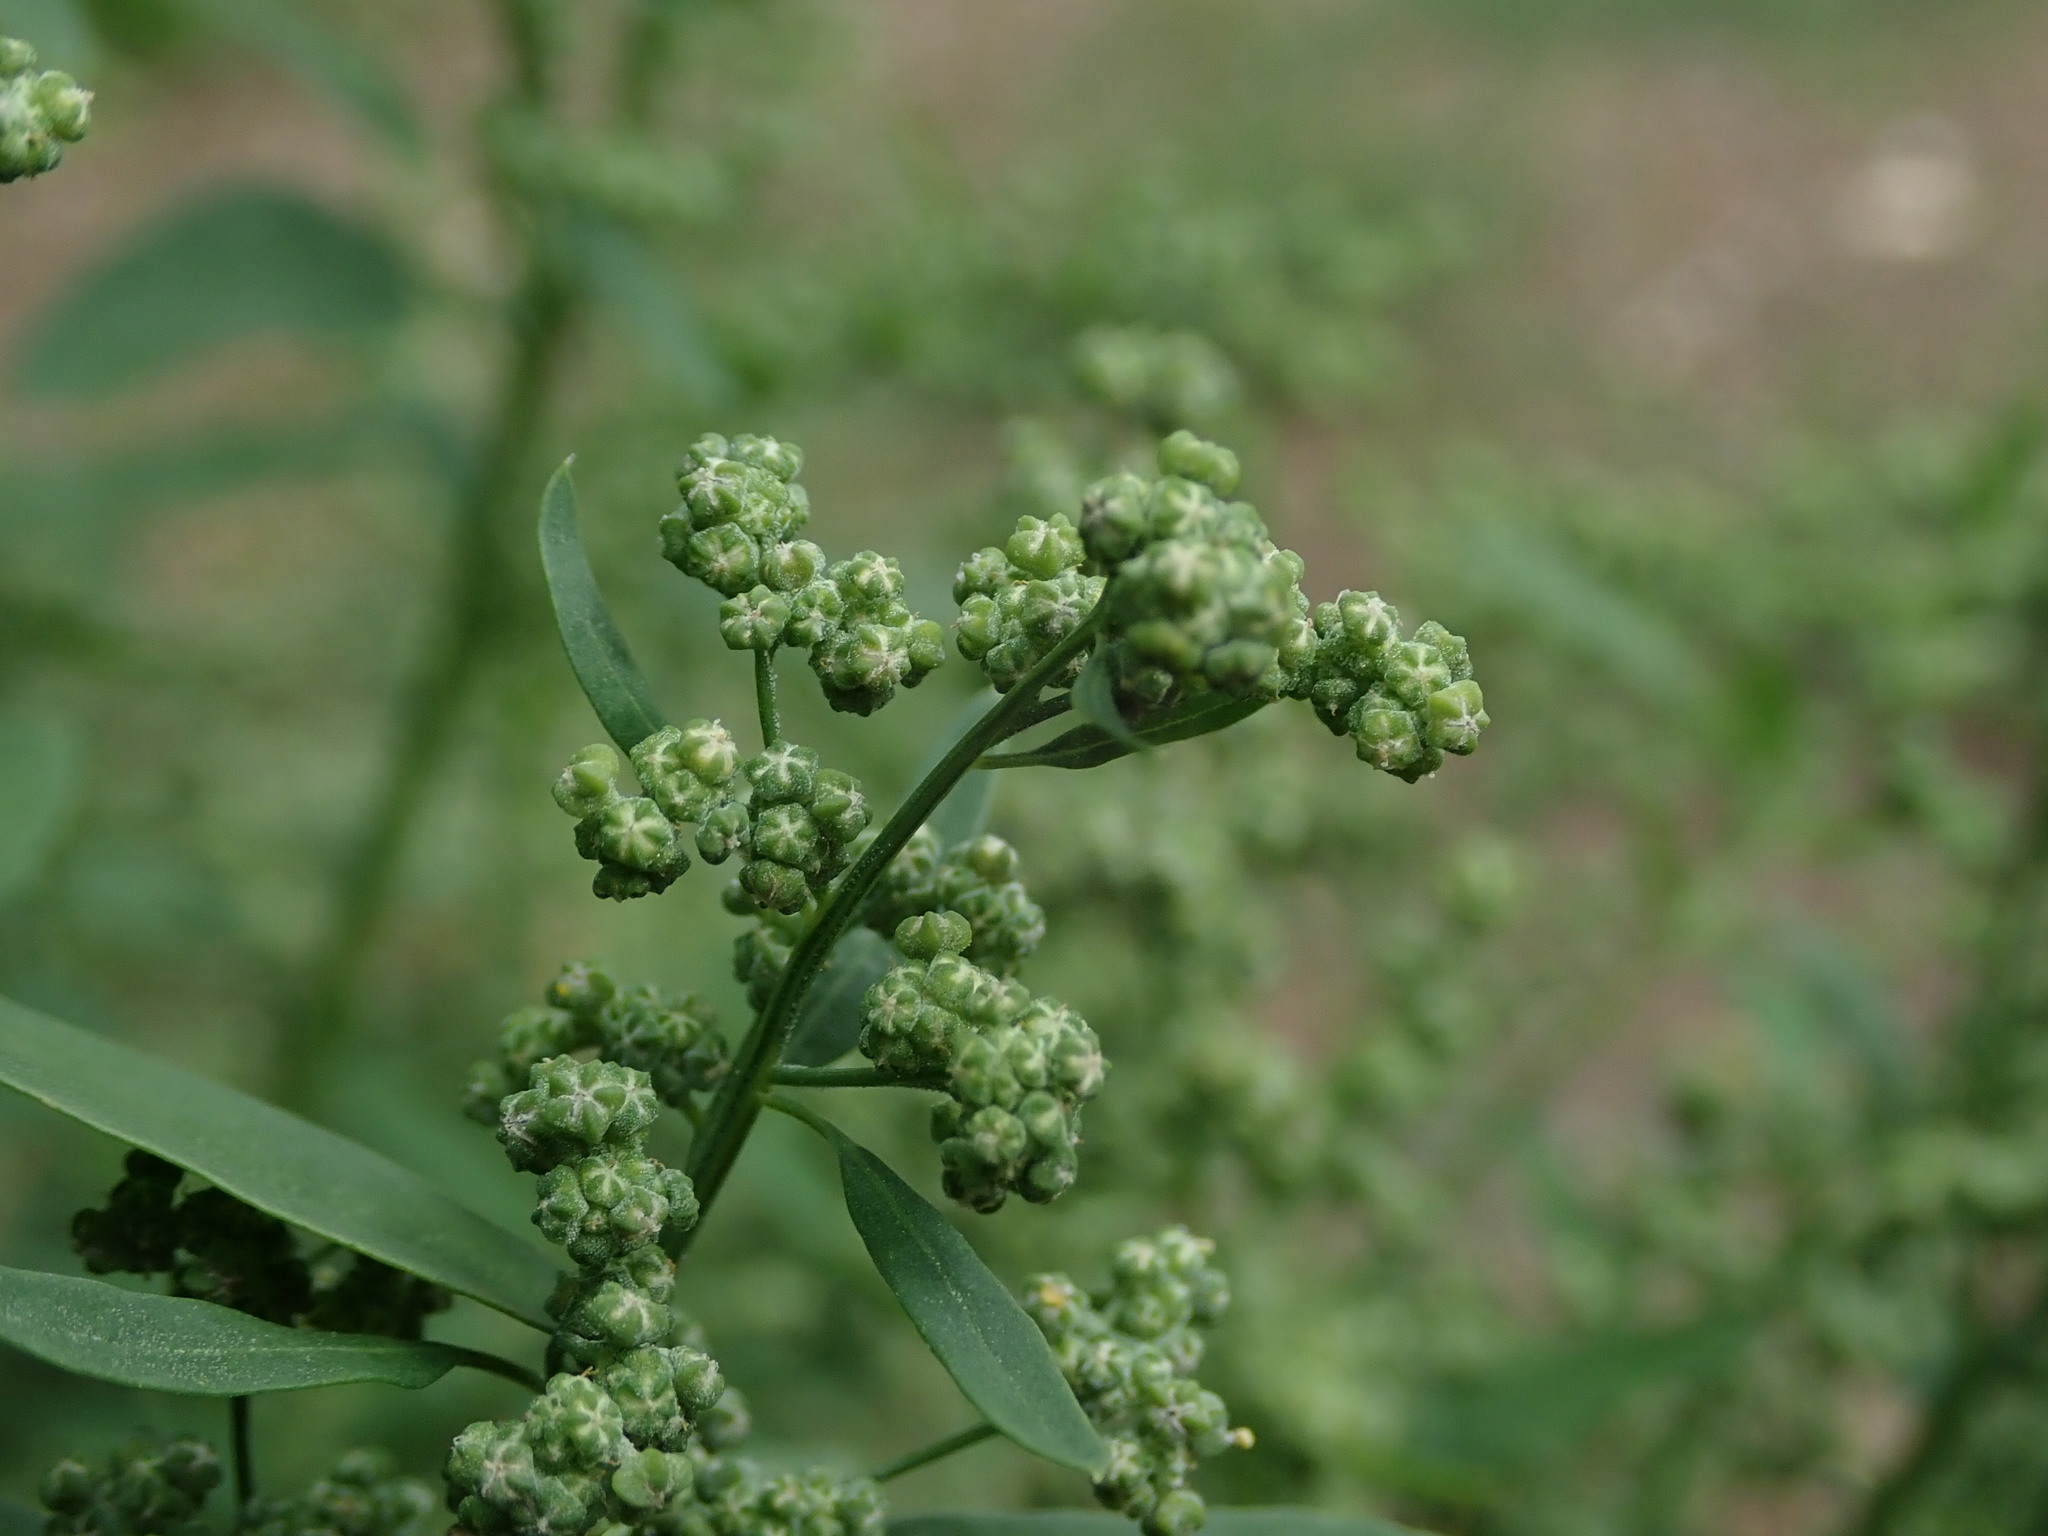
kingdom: Plantae
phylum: Tracheophyta
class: Magnoliopsida
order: Caryophyllales
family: Amaranthaceae
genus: Chenopodium
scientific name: Chenopodium album
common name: Fat-hen
